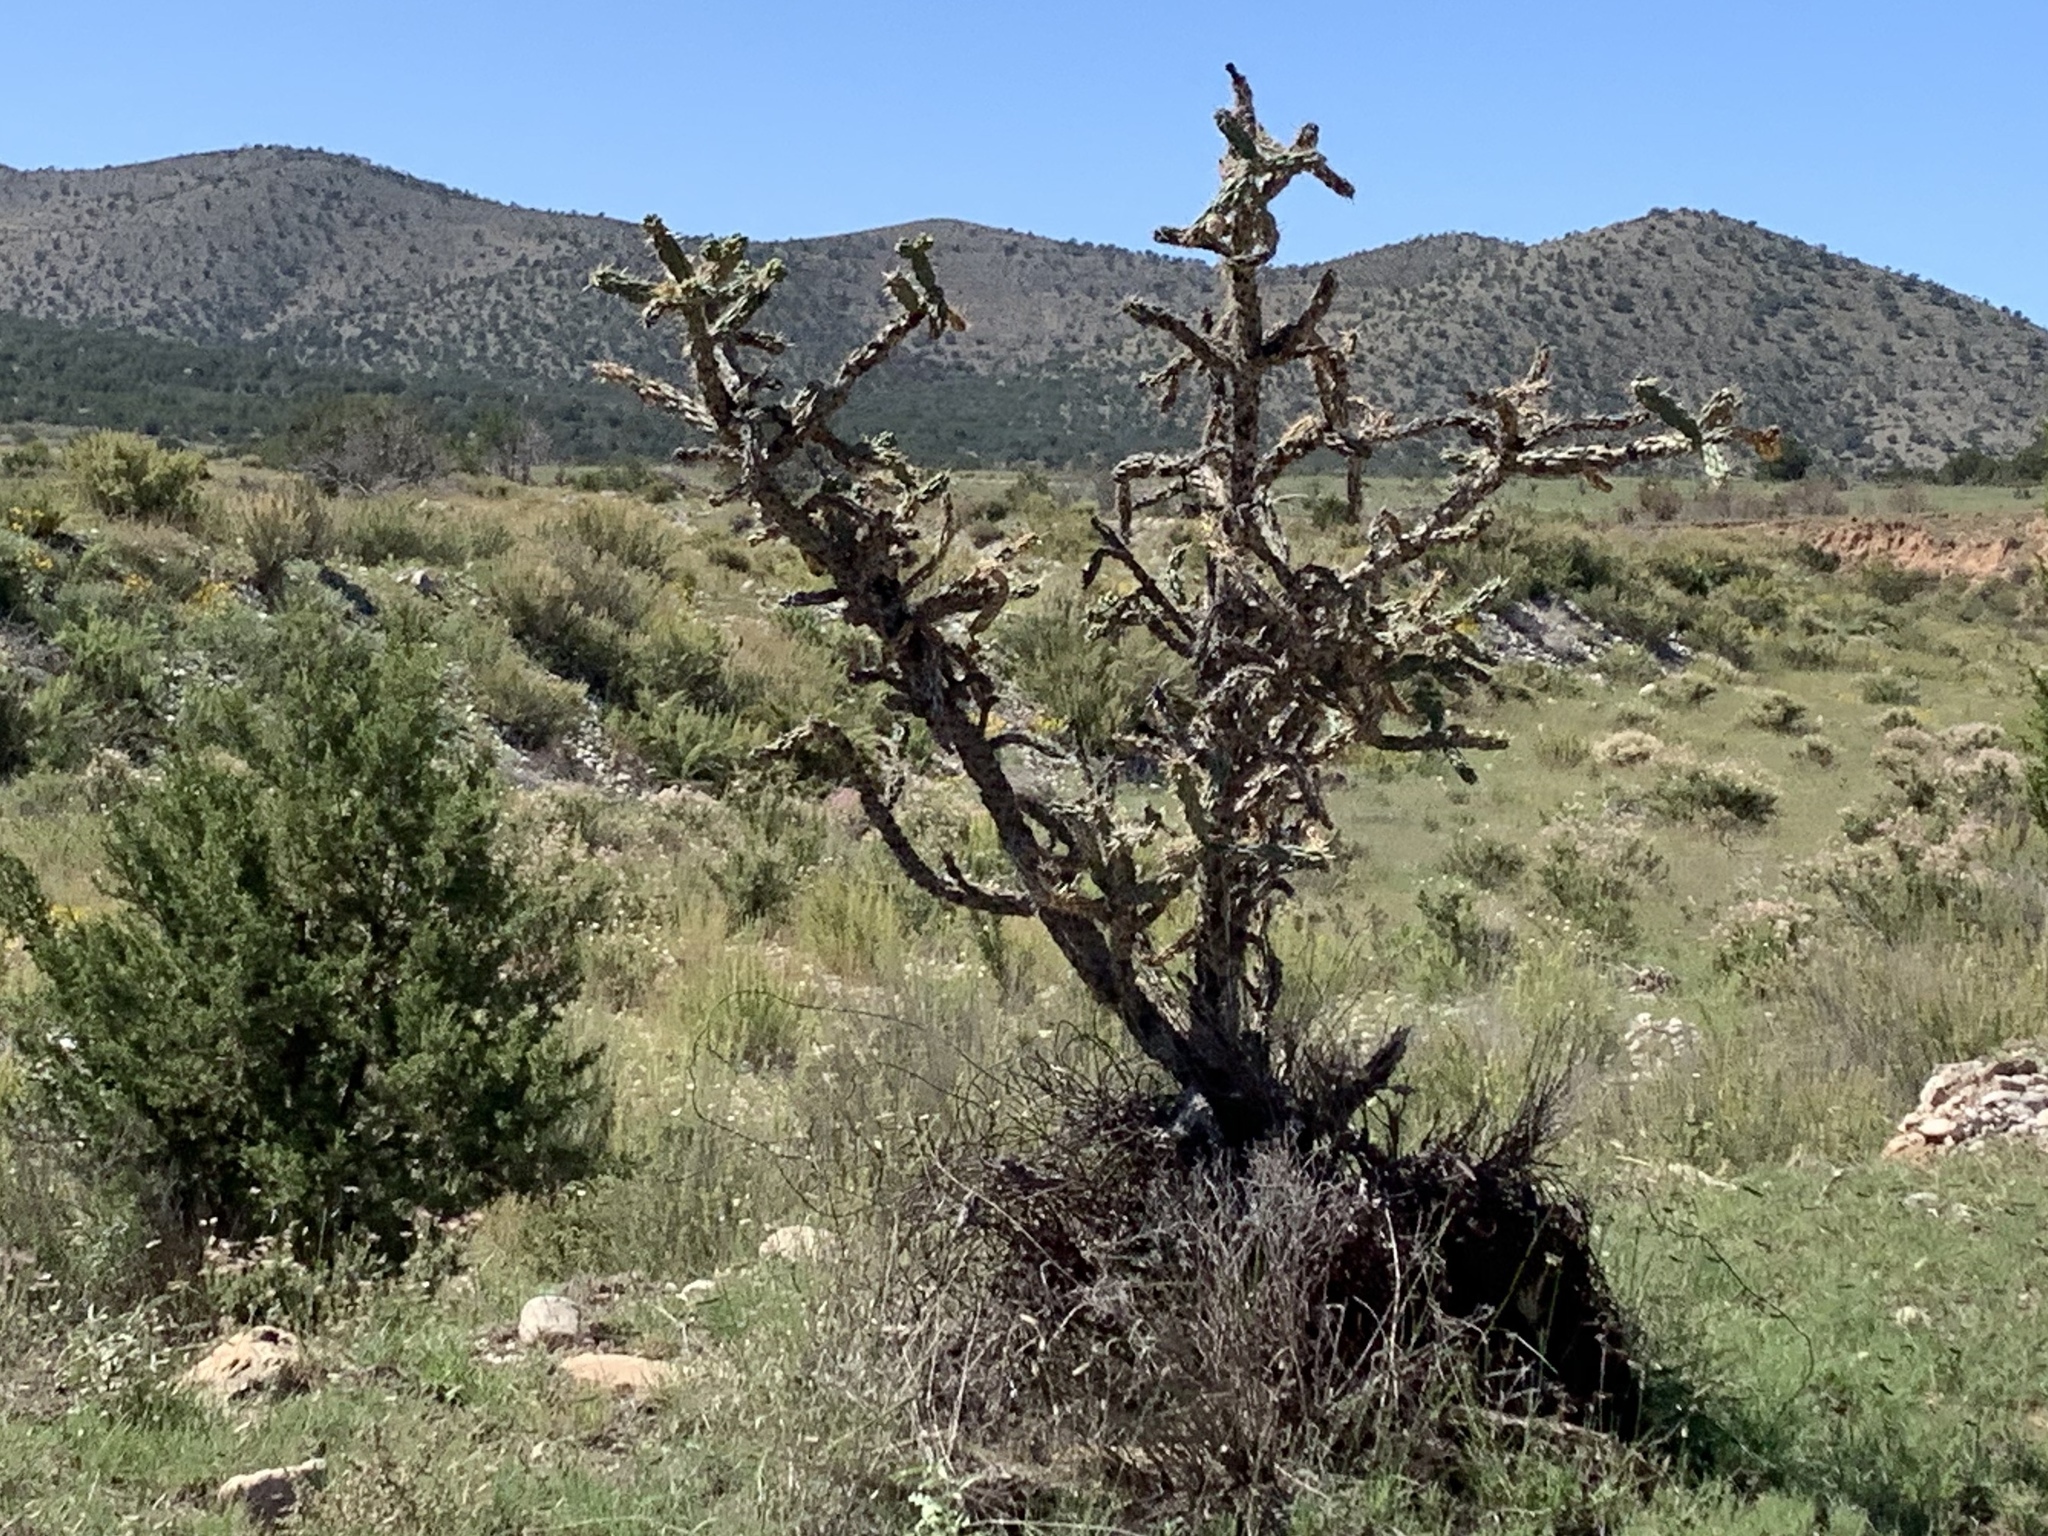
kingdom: Plantae
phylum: Tracheophyta
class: Magnoliopsida
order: Caryophyllales
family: Cactaceae
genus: Cylindropuntia
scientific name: Cylindropuntia imbricata
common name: Candelabrum cactus
